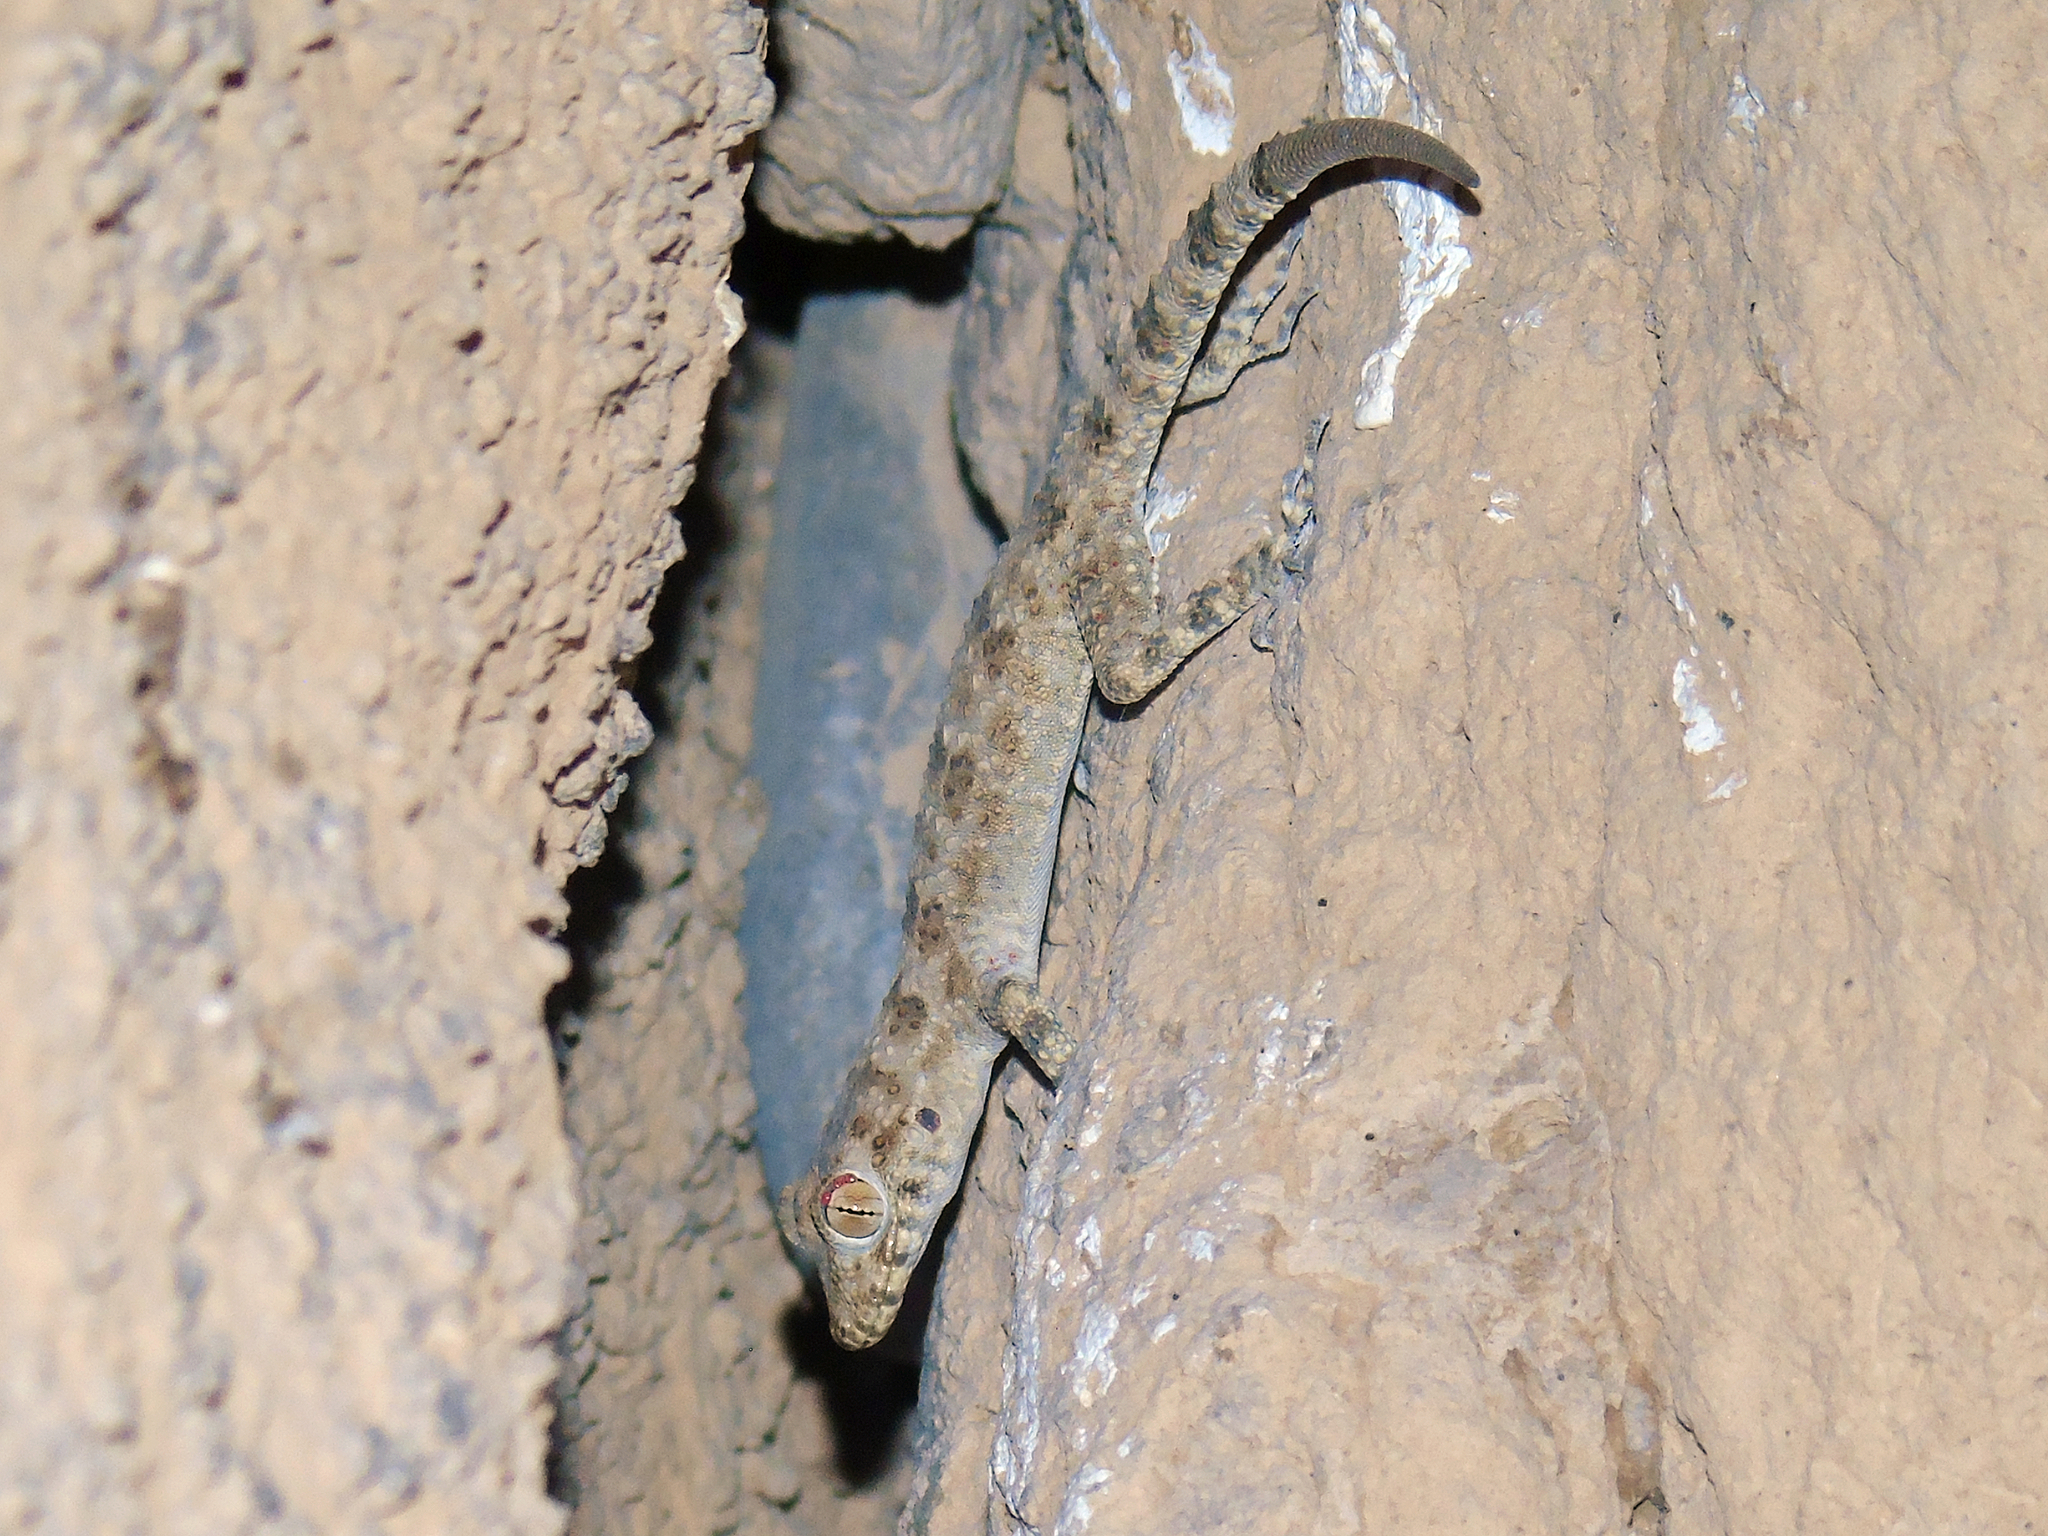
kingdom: Animalia
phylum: Chordata
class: Squamata
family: Gekkonidae
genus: Tenuidactylus
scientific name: Tenuidactylus fedtschenkoi
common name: Turkestan thin-toed gecko
